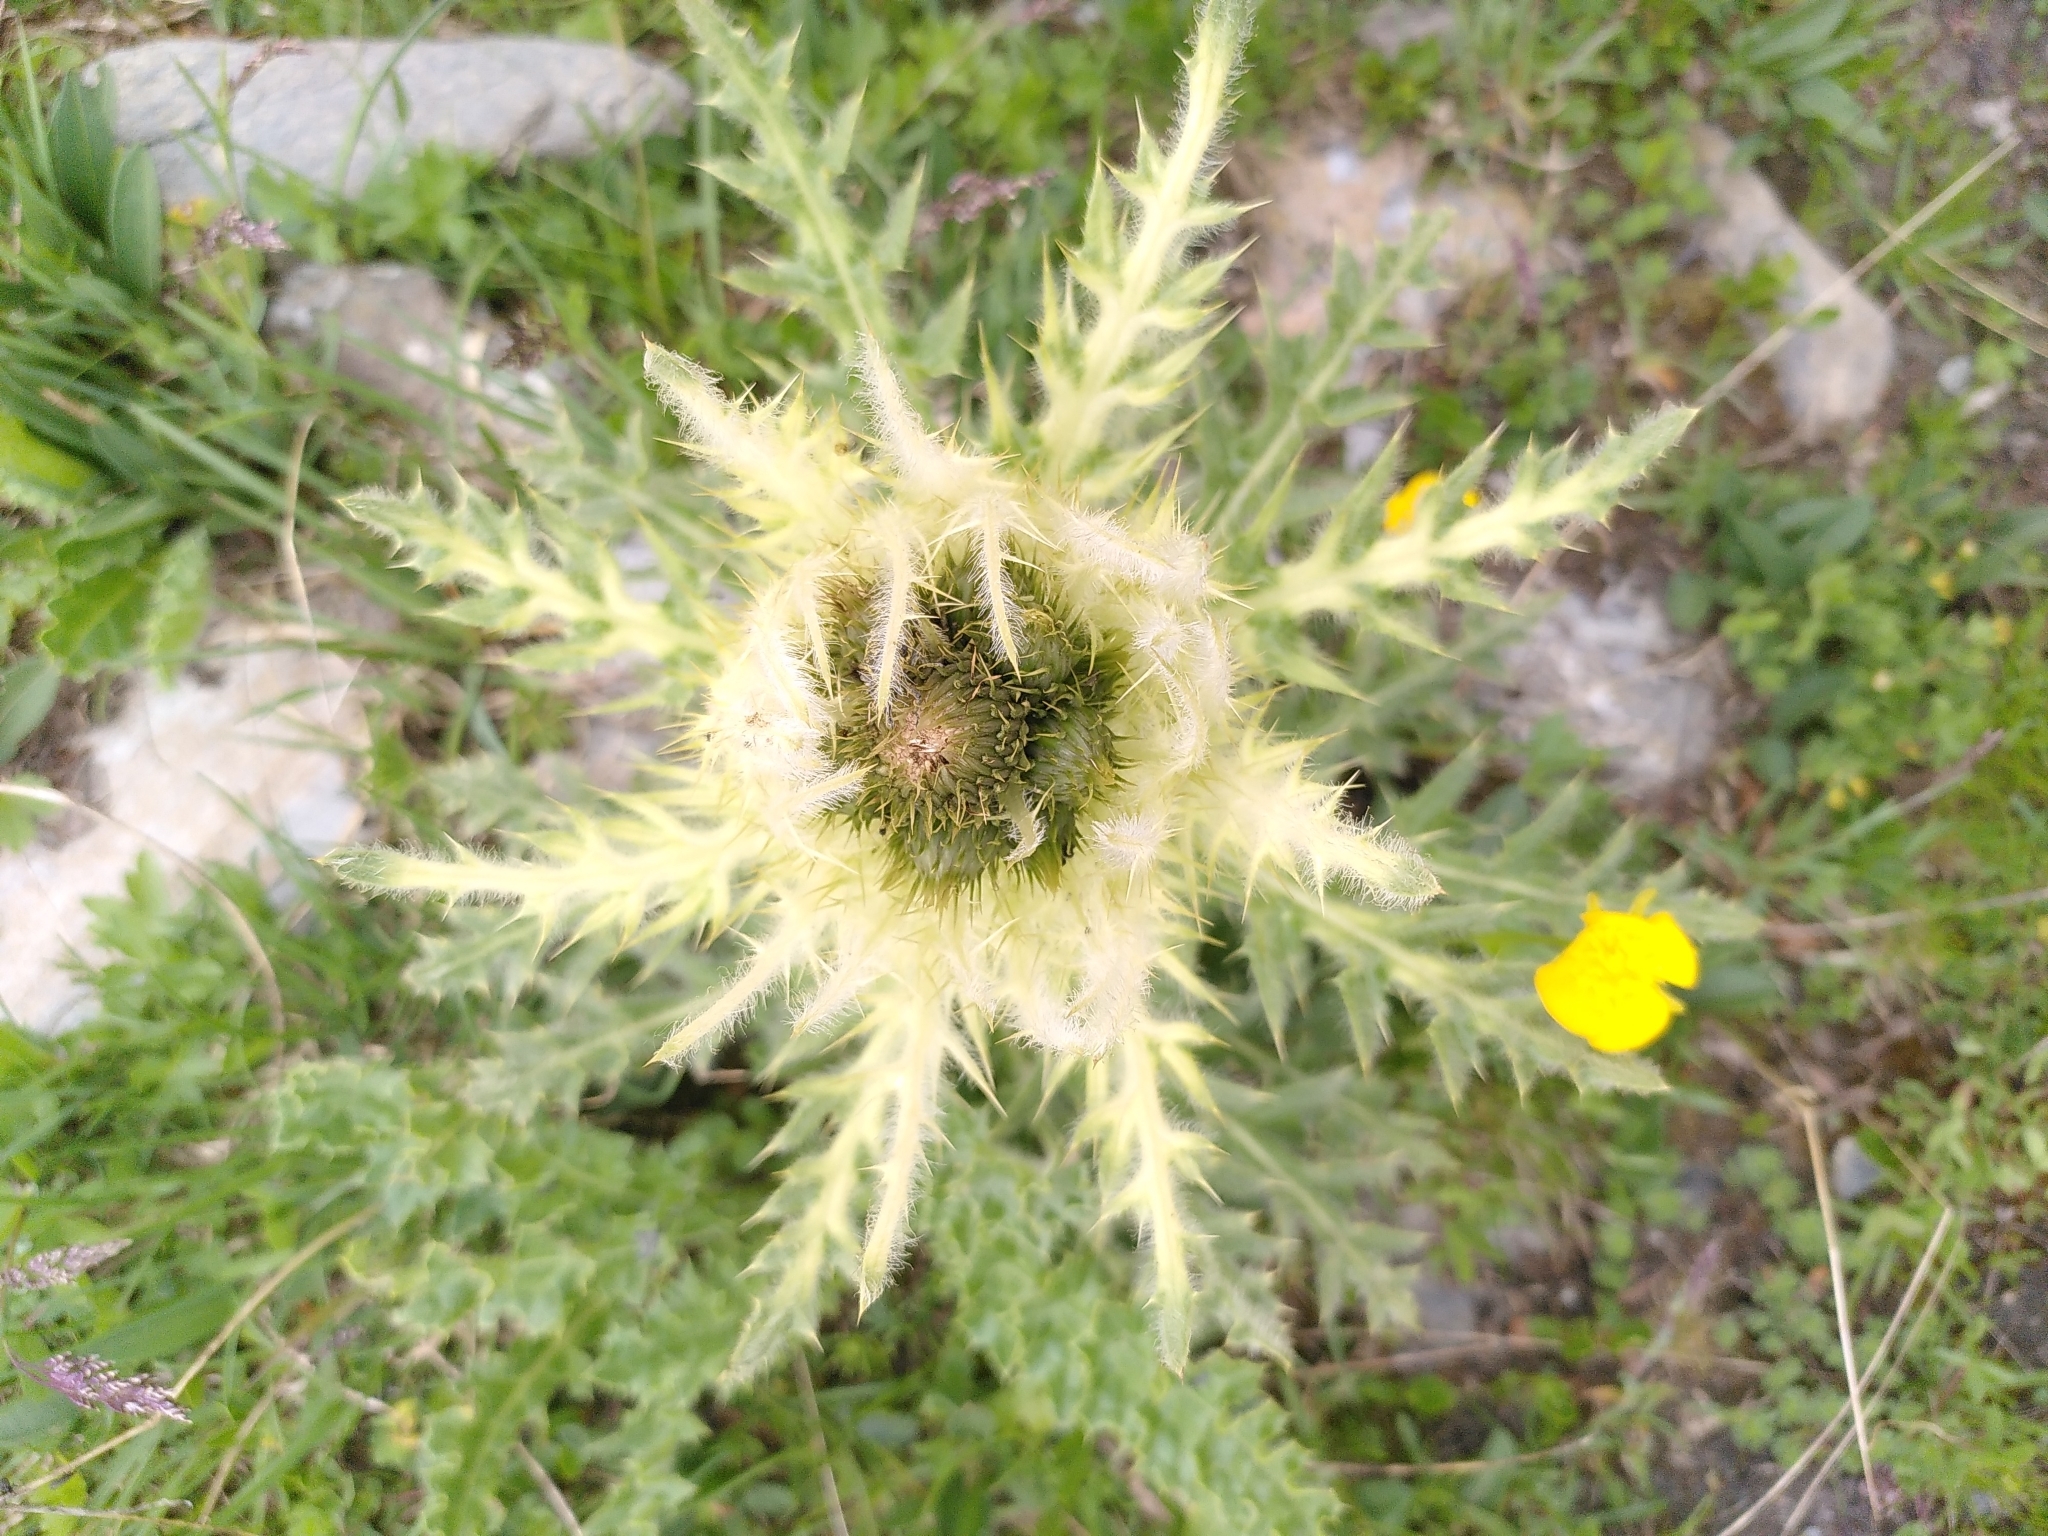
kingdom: Plantae
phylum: Tracheophyta
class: Magnoliopsida
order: Asterales
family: Asteraceae
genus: Cirsium
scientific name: Cirsium spinosissimum
